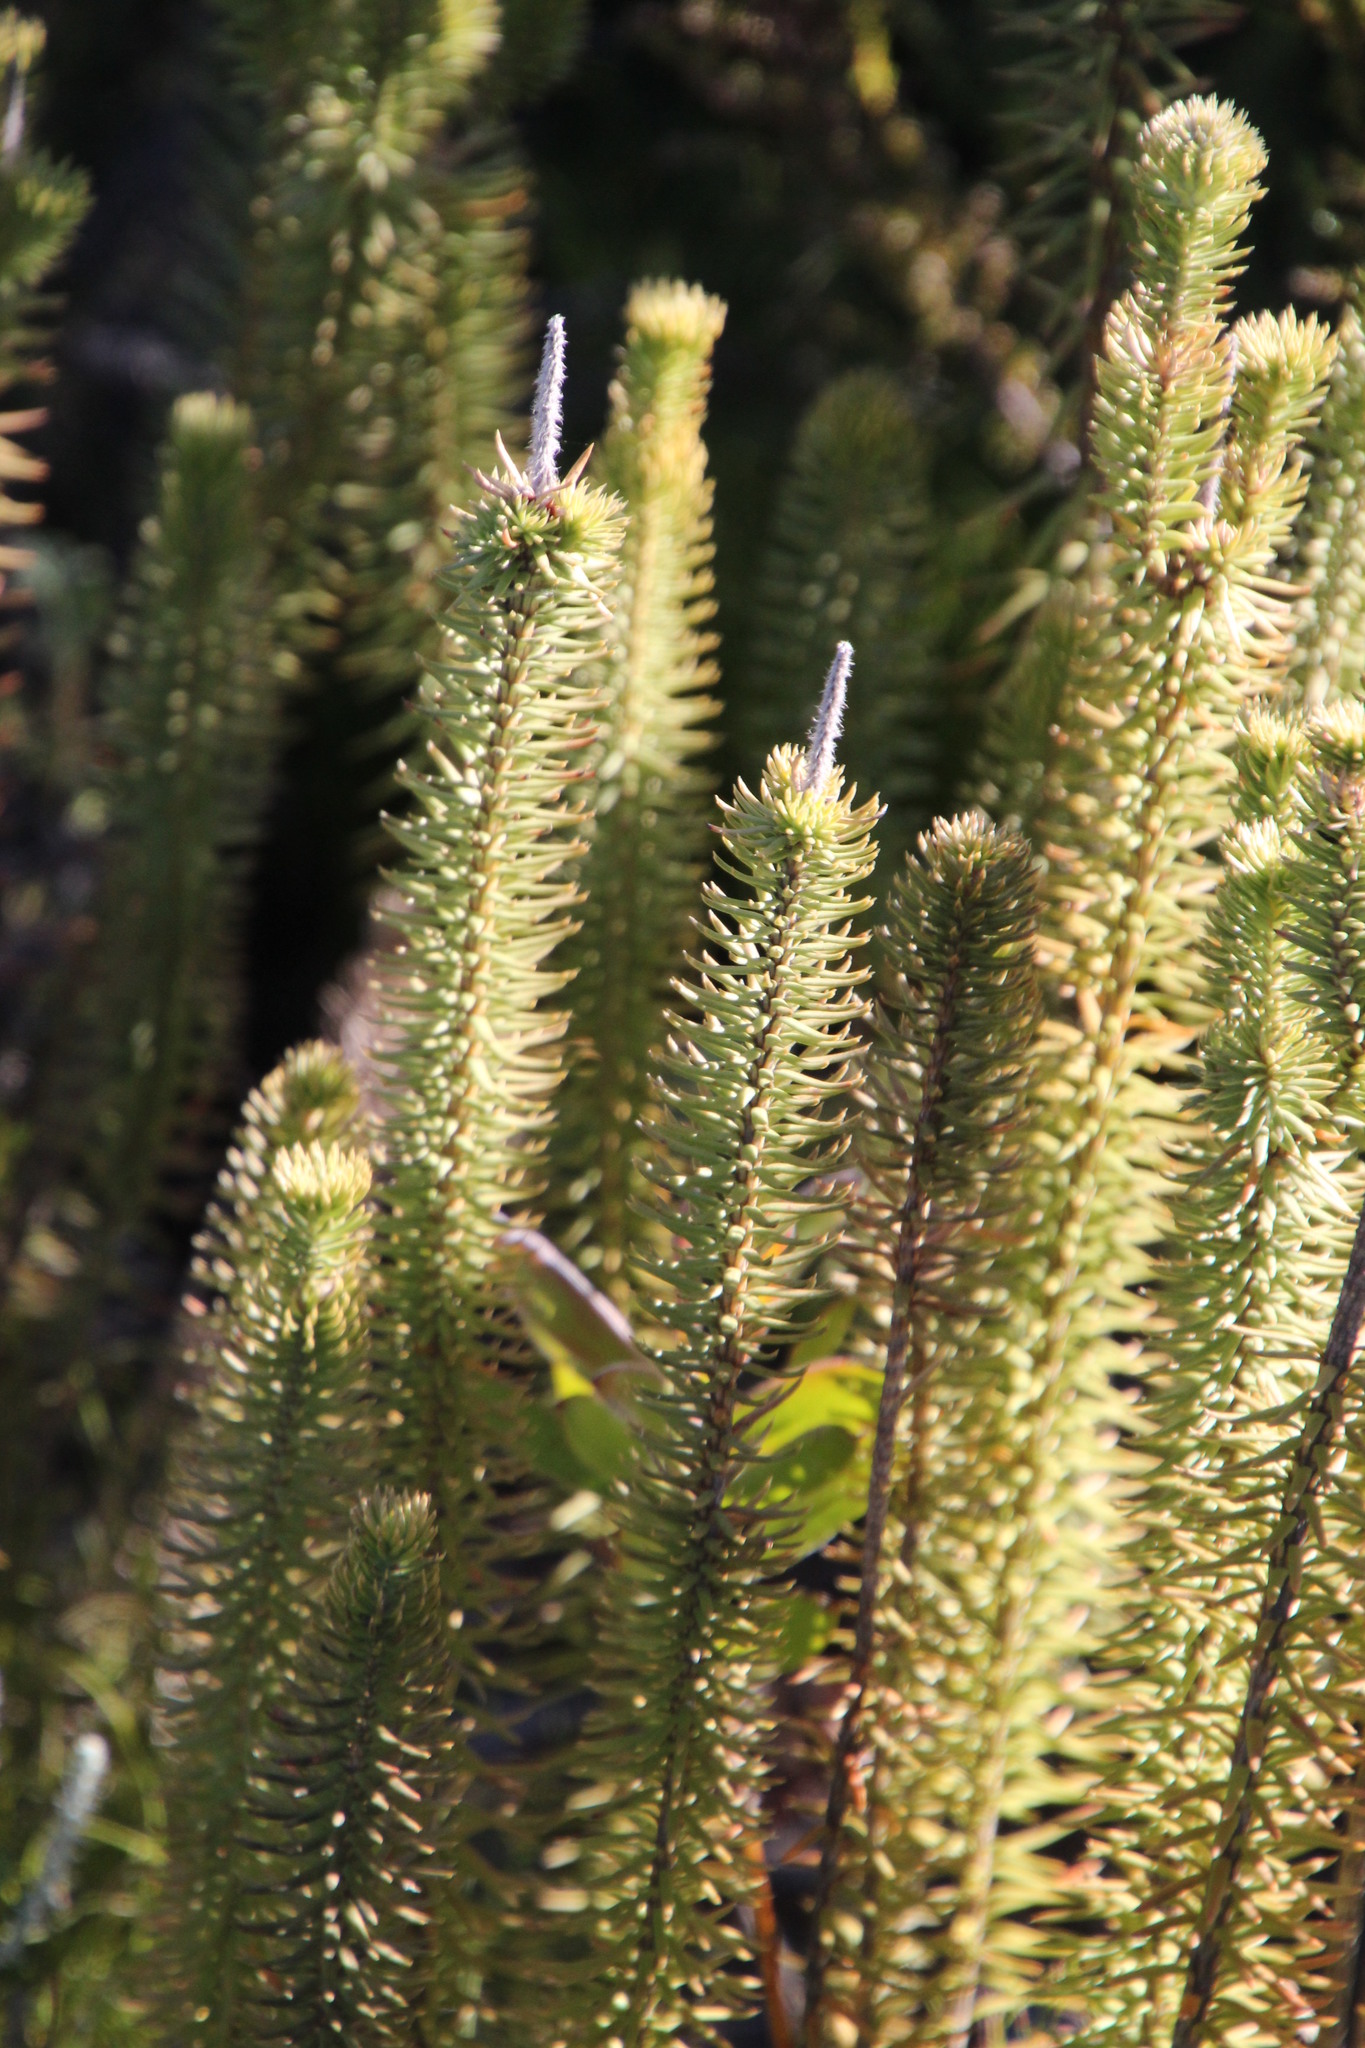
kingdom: Plantae
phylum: Tracheophyta
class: Magnoliopsida
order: Lamiales
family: Stilbaceae
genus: Stilbe
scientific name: Stilbe vestita
